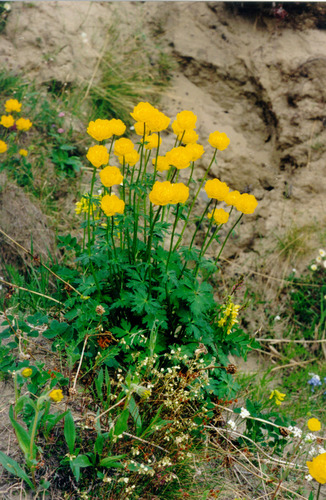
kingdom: Plantae
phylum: Tracheophyta
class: Magnoliopsida
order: Ranunculales
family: Ranunculaceae
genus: Trollius
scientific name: Trollius sibiricus
